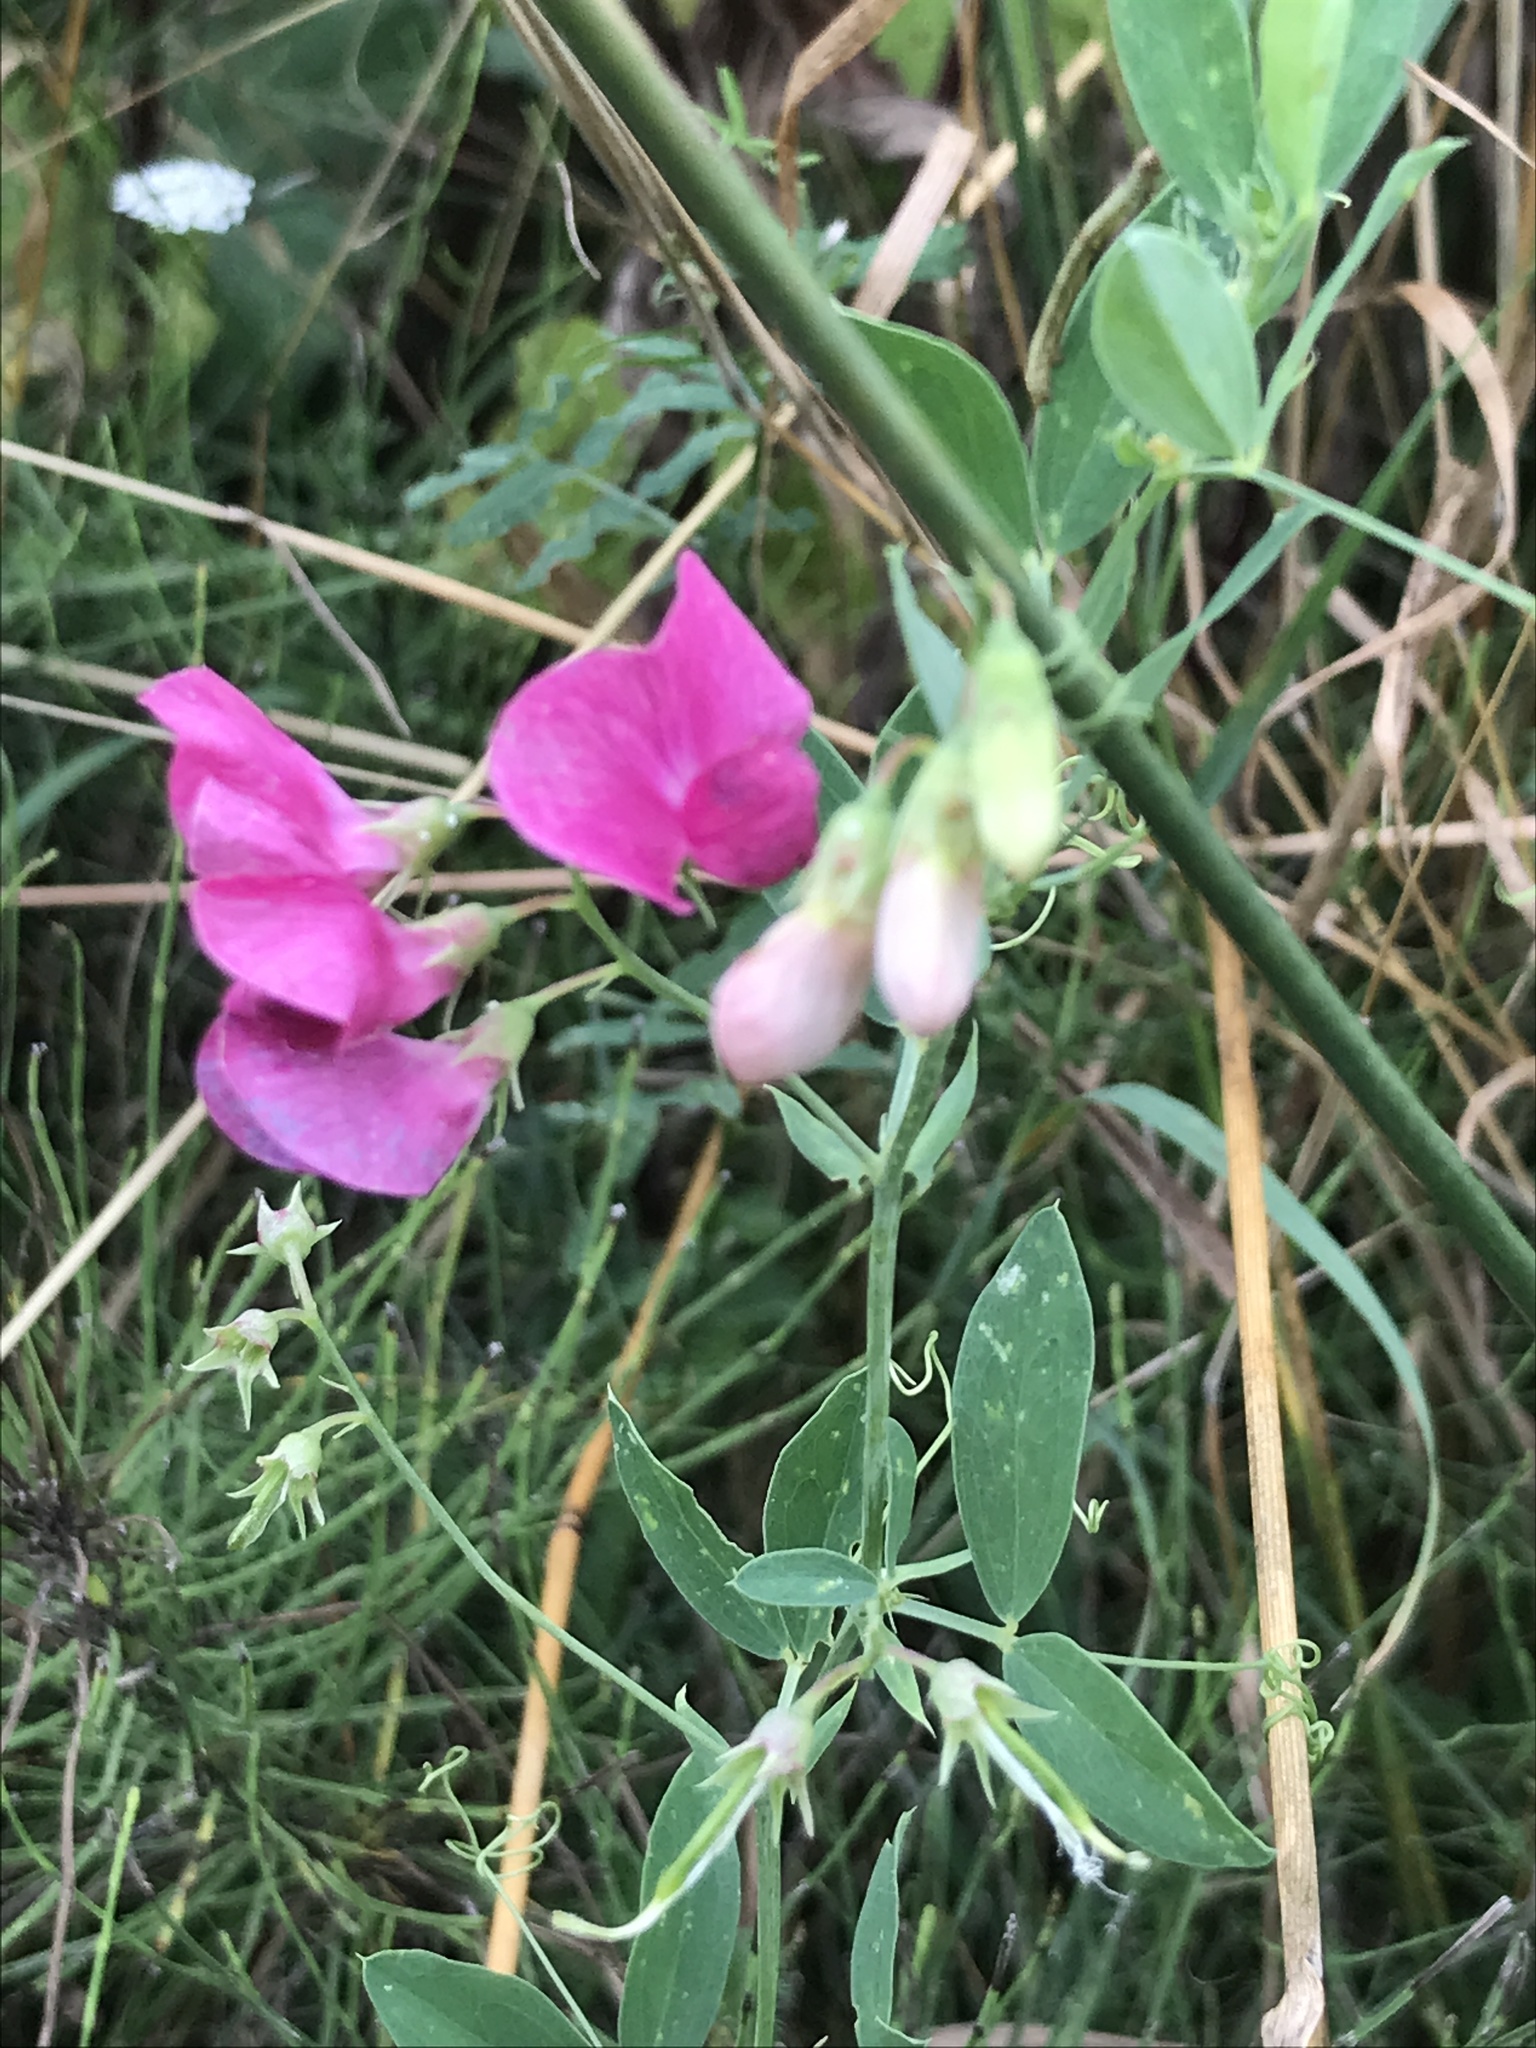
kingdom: Plantae
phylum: Tracheophyta
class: Magnoliopsida
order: Fabales
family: Fabaceae
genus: Lathyrus
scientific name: Lathyrus tuberosus
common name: Tuberous pea
